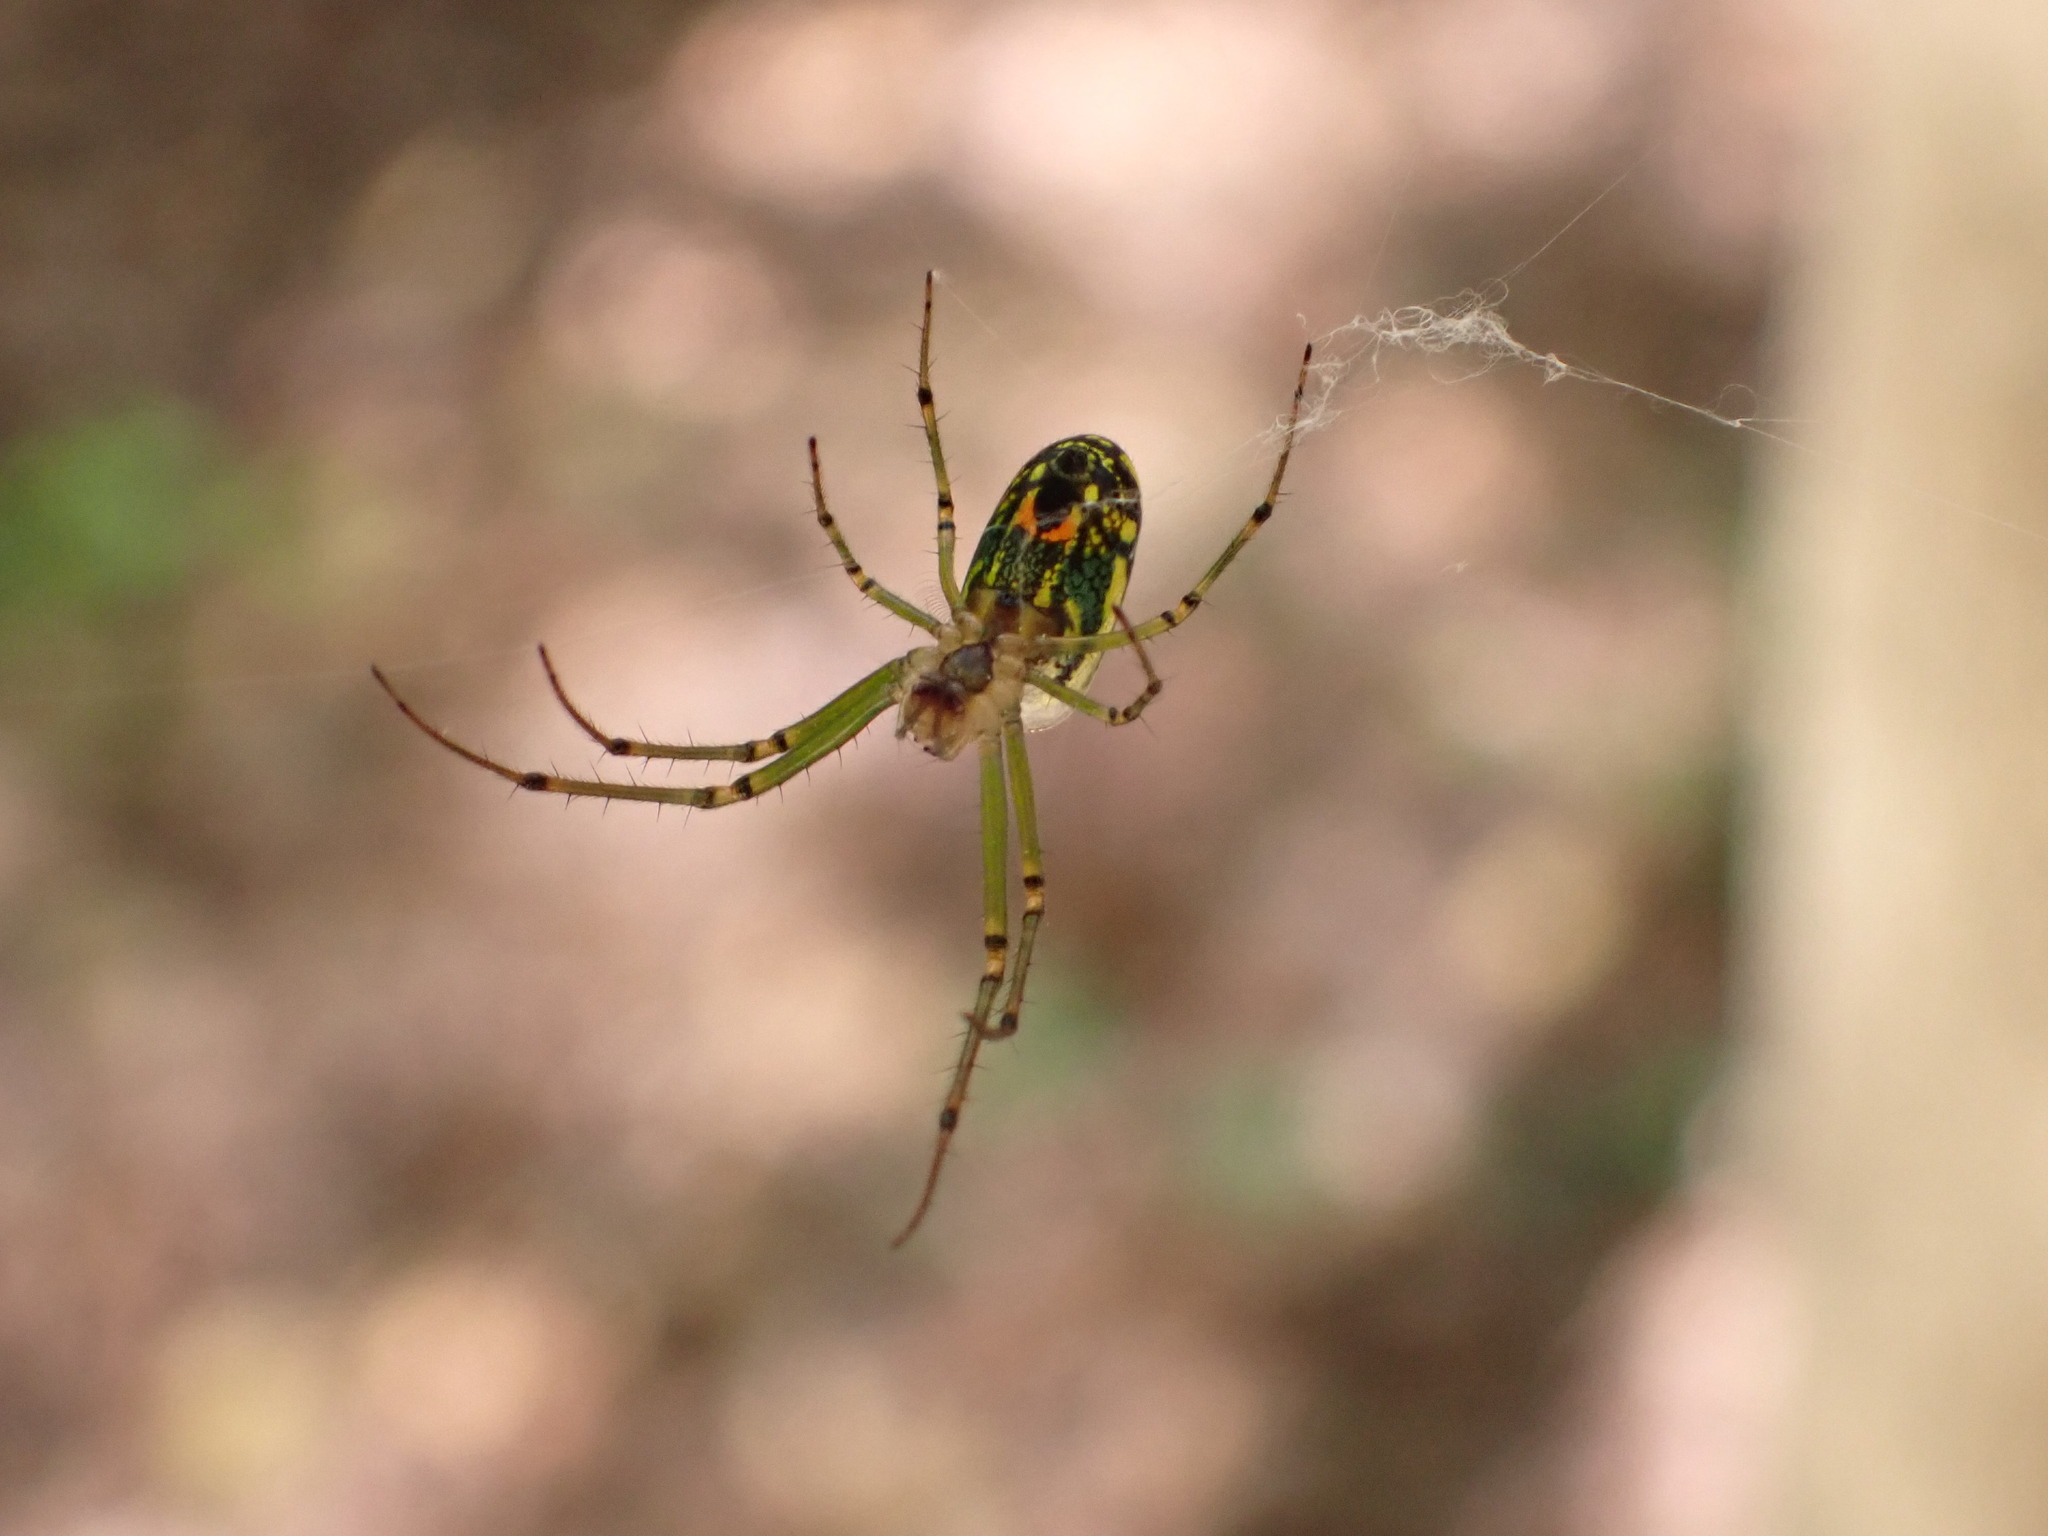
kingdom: Animalia
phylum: Arthropoda
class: Arachnida
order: Araneae
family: Tetragnathidae
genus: Leucauge
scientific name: Leucauge venusta
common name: Longjawed orb weavers
